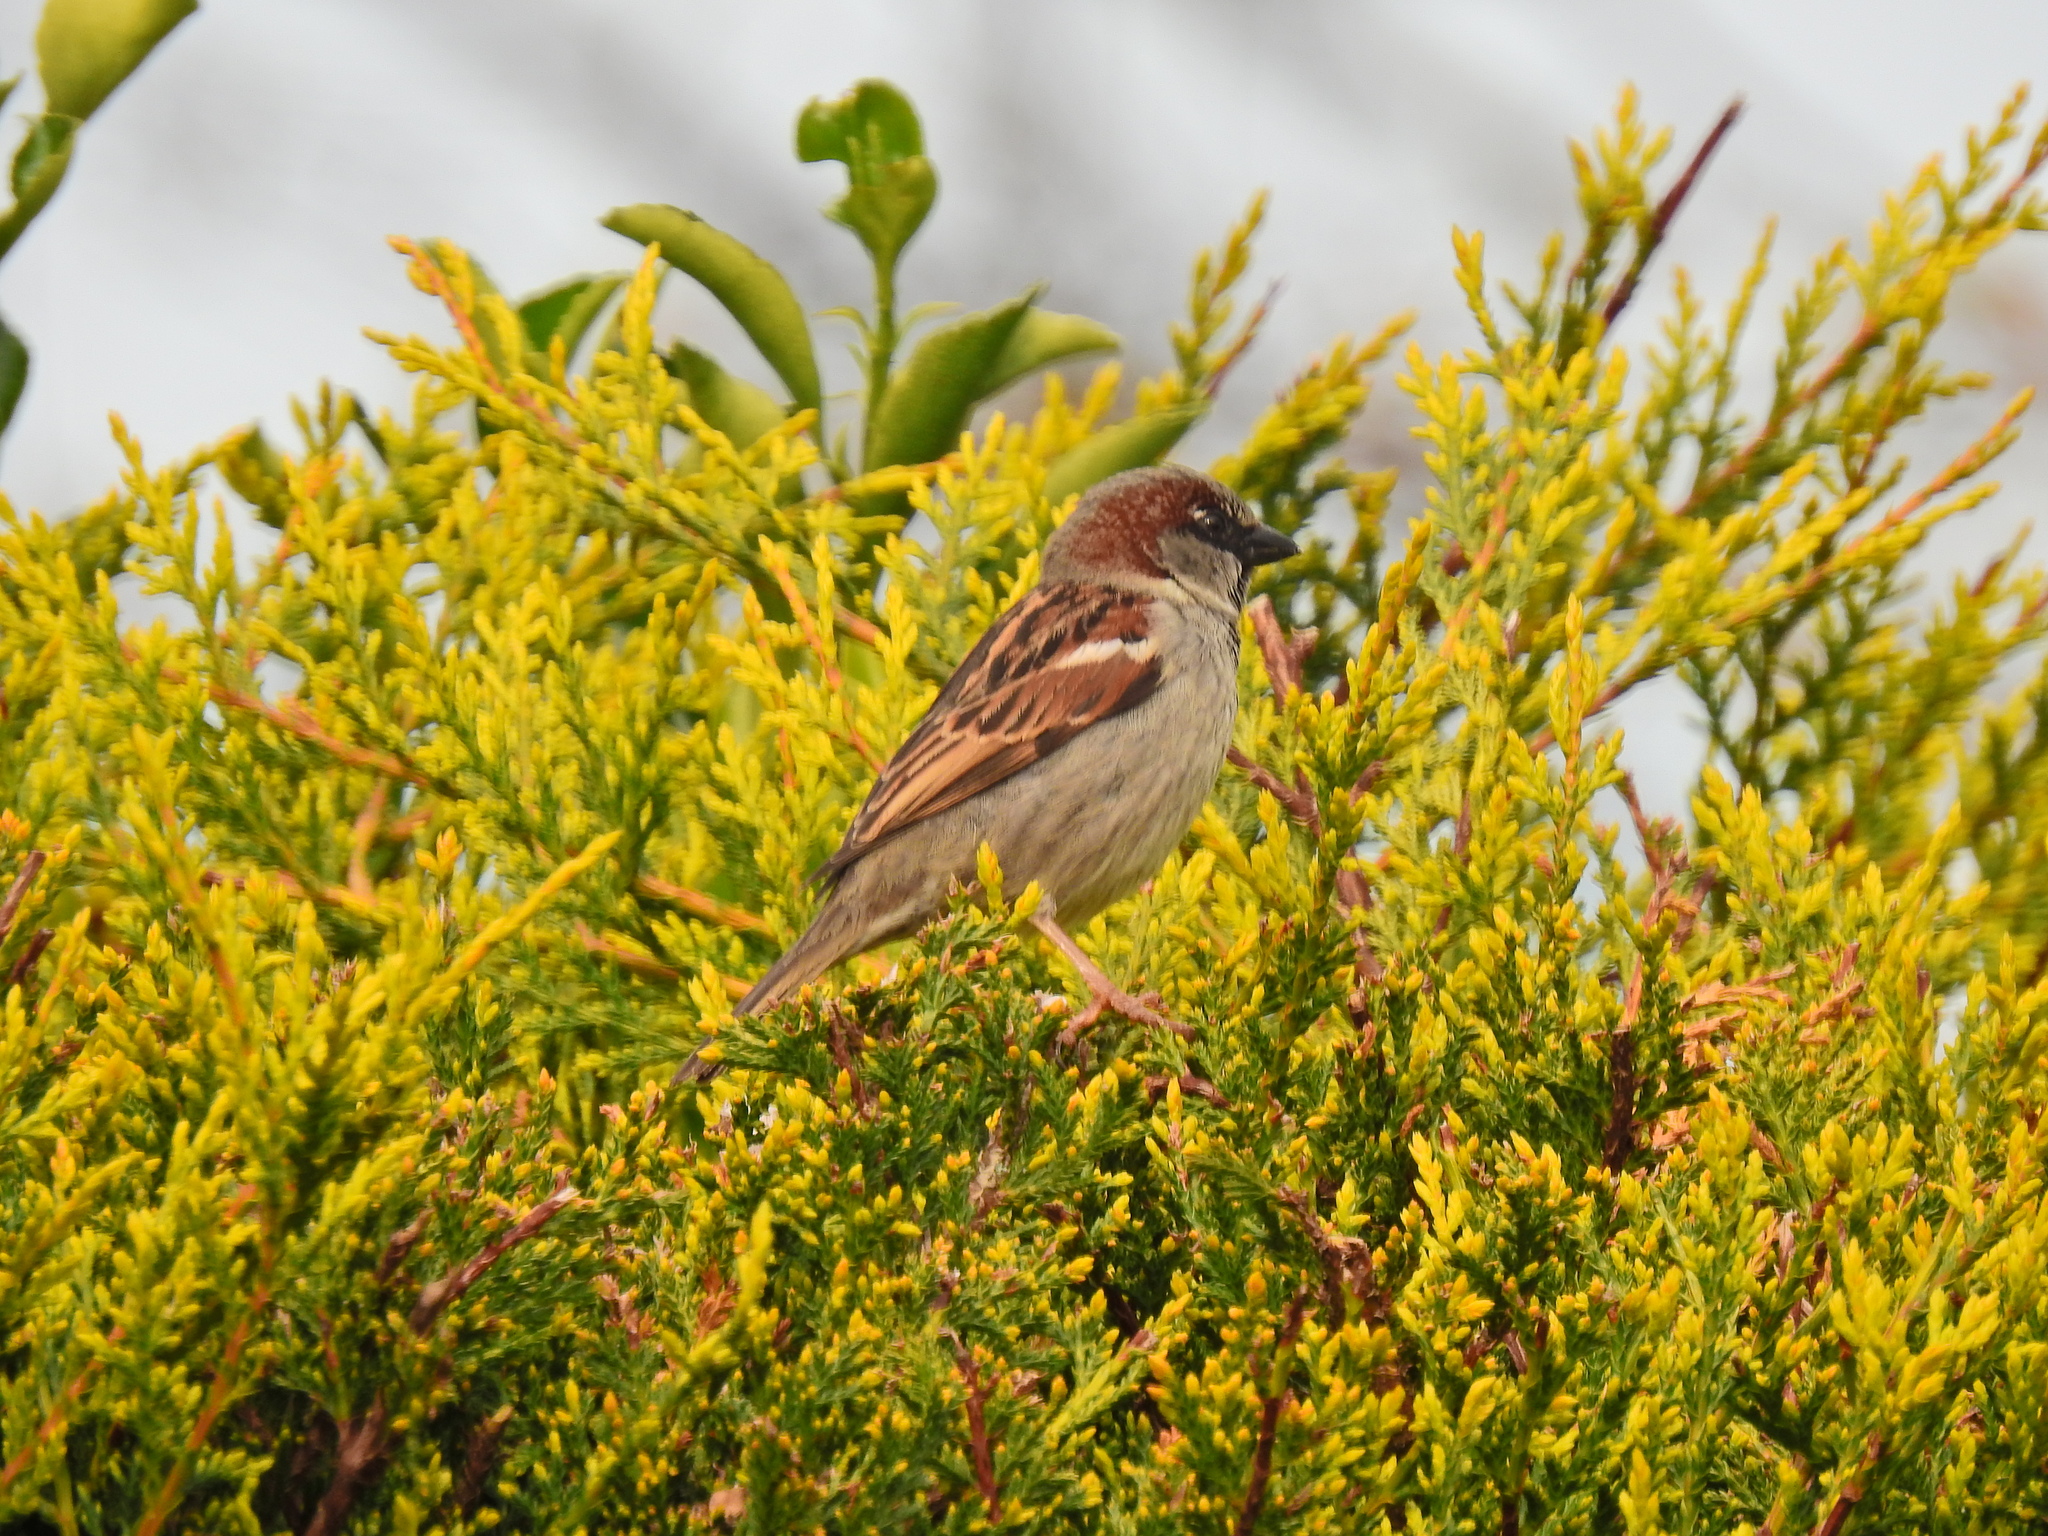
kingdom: Animalia
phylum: Chordata
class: Aves
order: Passeriformes
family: Passeridae
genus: Passer
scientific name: Passer domesticus
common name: House sparrow
